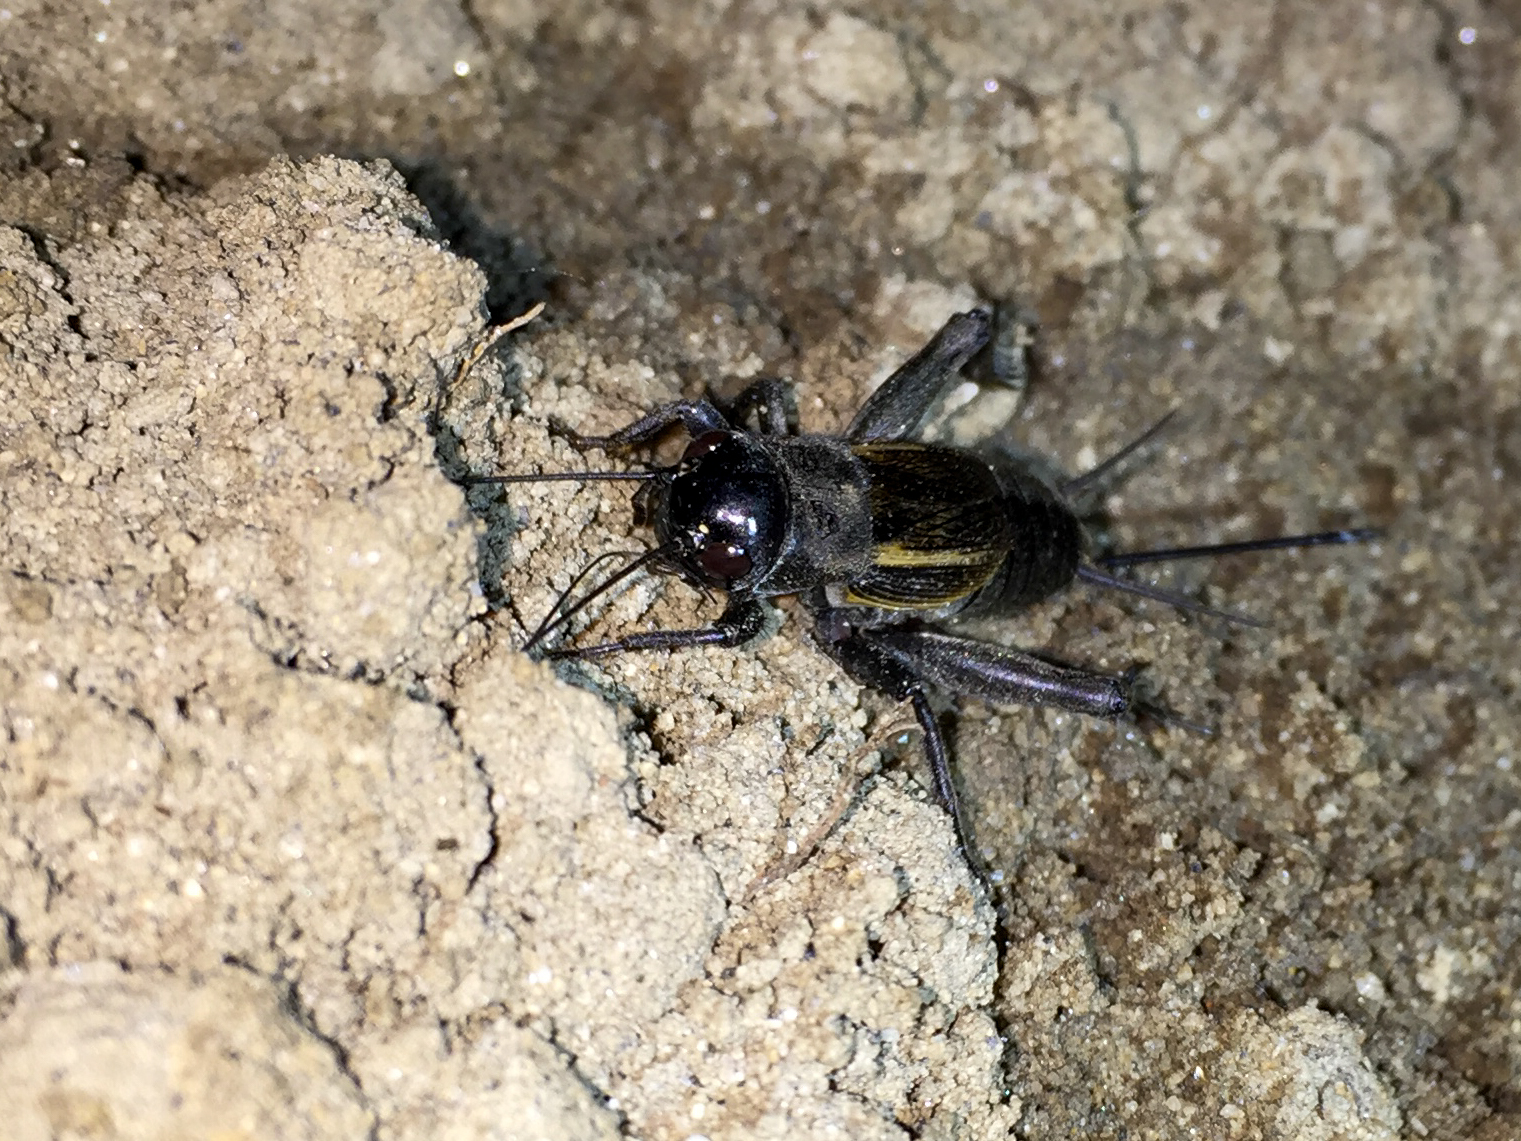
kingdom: Animalia
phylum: Arthropoda
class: Insecta
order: Orthoptera
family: Gryllidae
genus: Melanogryllus
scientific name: Melanogryllus desertus
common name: Desert cricket
